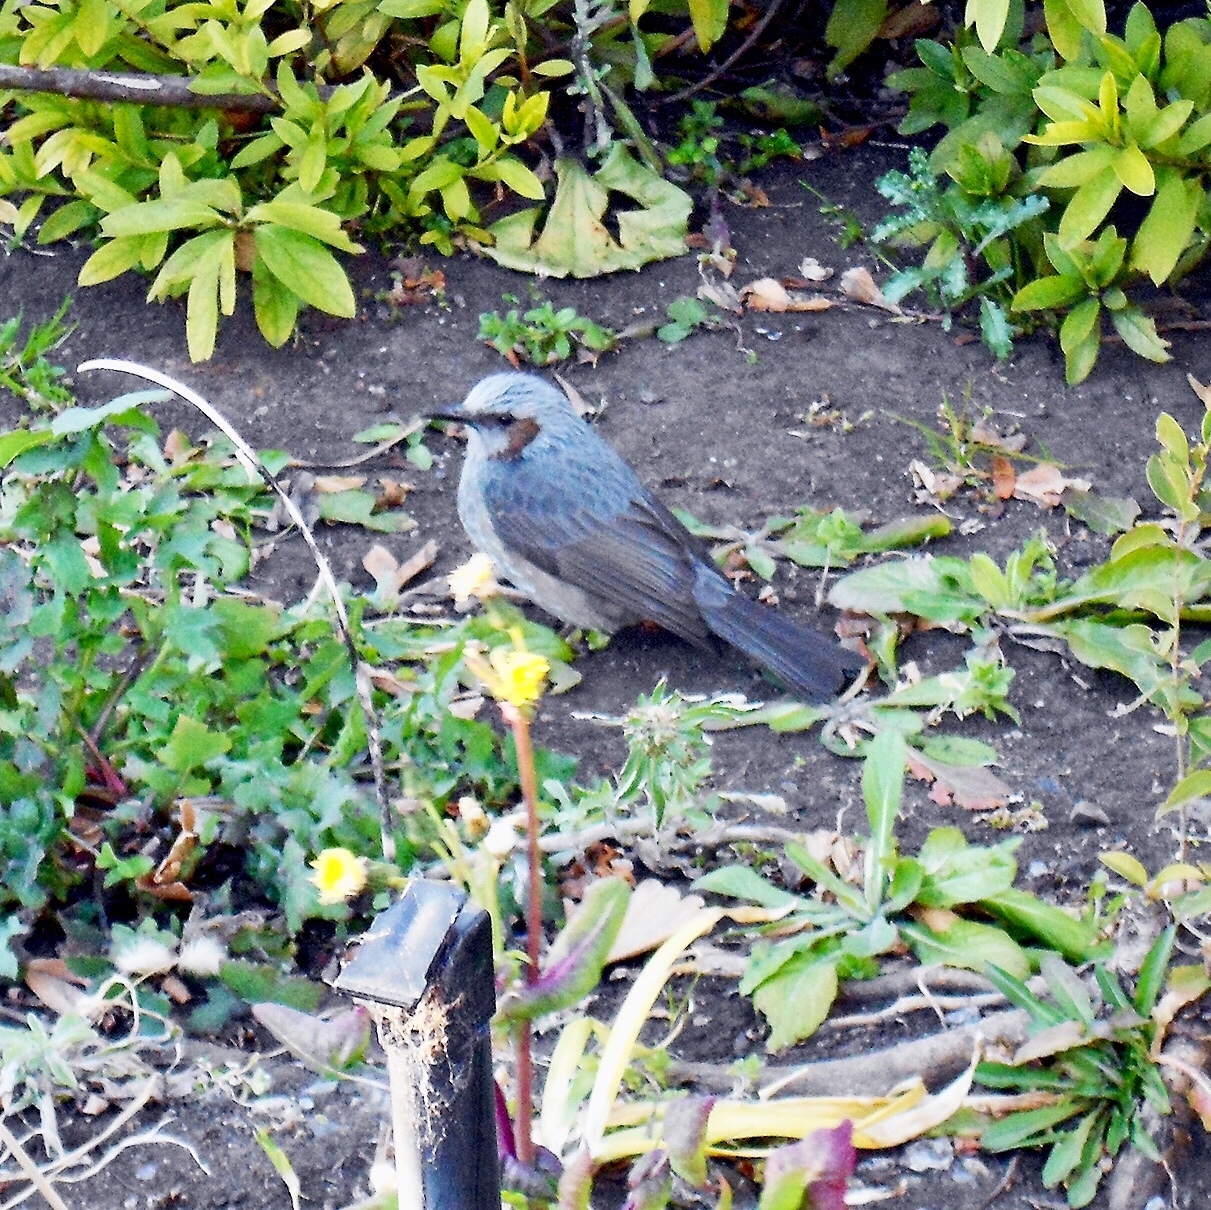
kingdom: Animalia
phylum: Chordata
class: Aves
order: Passeriformes
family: Pycnonotidae
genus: Hypsipetes
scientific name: Hypsipetes amaurotis
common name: Brown-eared bulbul
